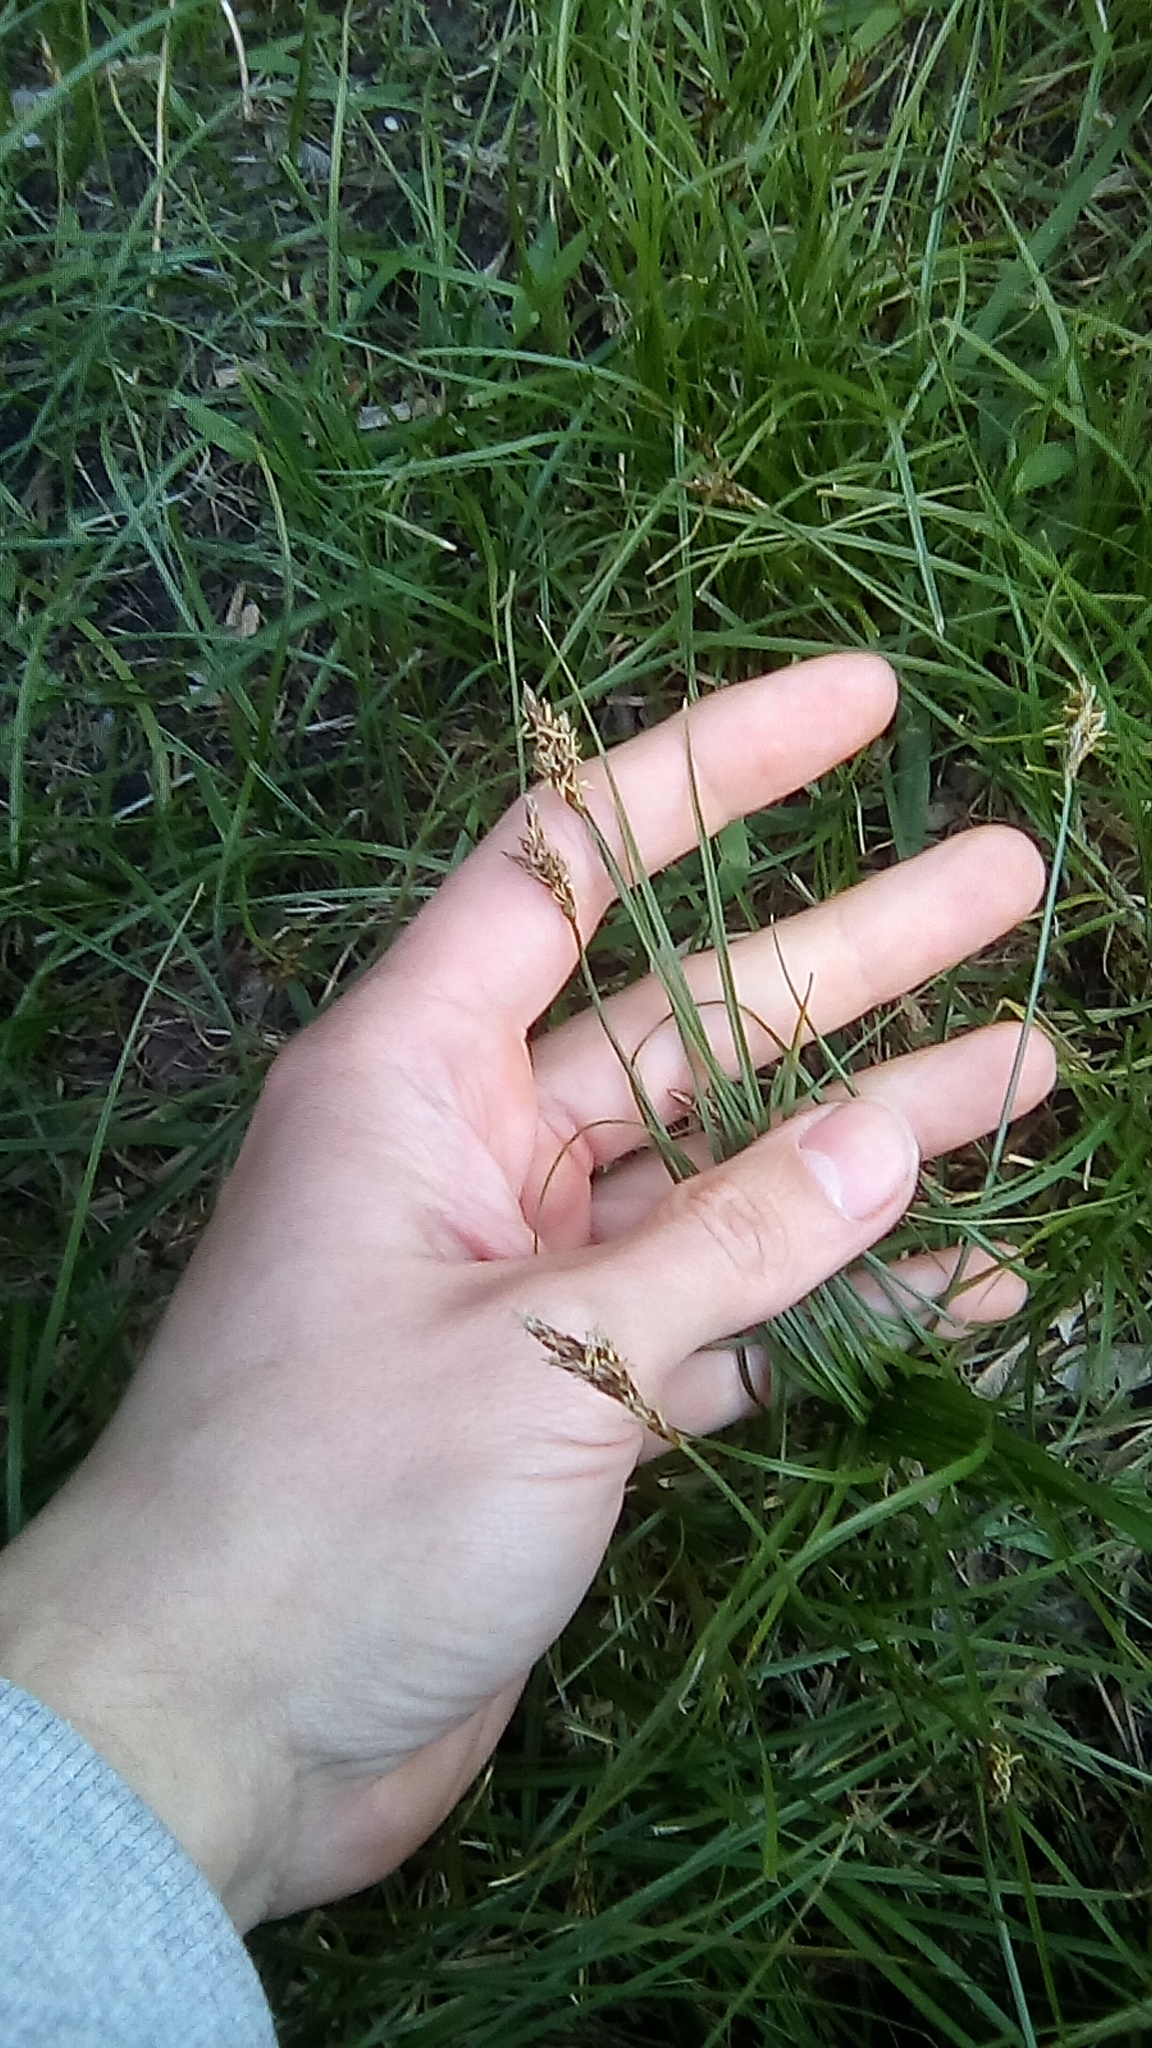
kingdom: Plantae
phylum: Tracheophyta
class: Liliopsida
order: Poales
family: Cyperaceae
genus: Carex
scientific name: Carex praecox
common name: Early sedge
